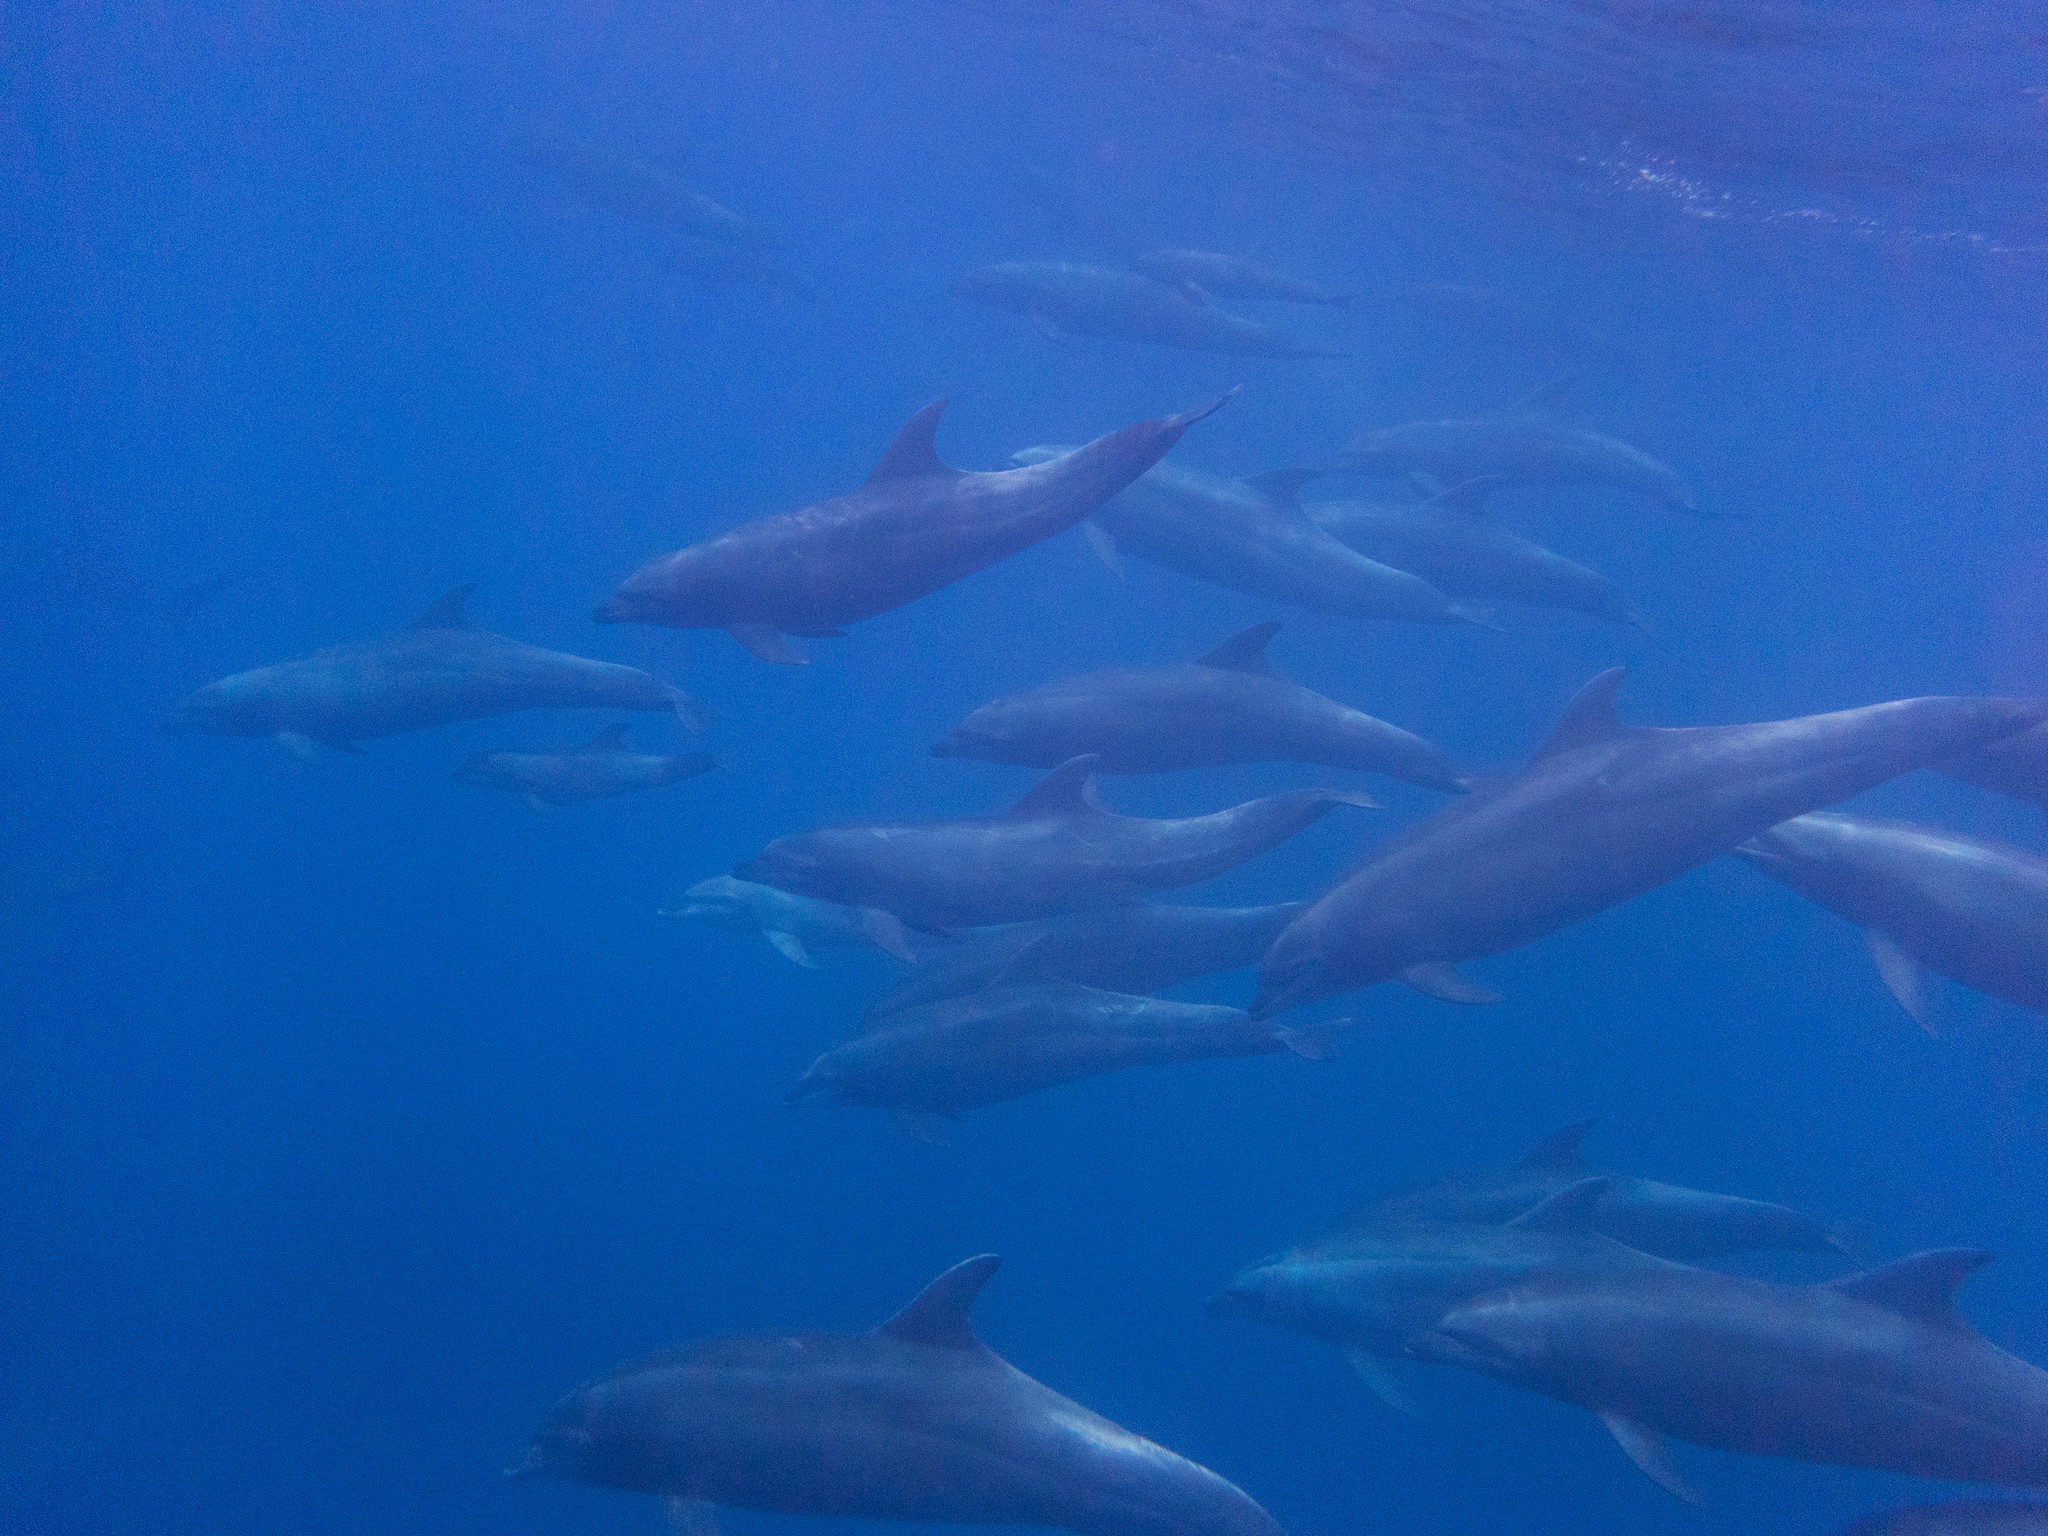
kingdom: Animalia
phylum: Chordata
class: Mammalia
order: Cetacea
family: Delphinidae
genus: Tursiops
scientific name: Tursiops truncatus
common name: Bottlenose dolphin
